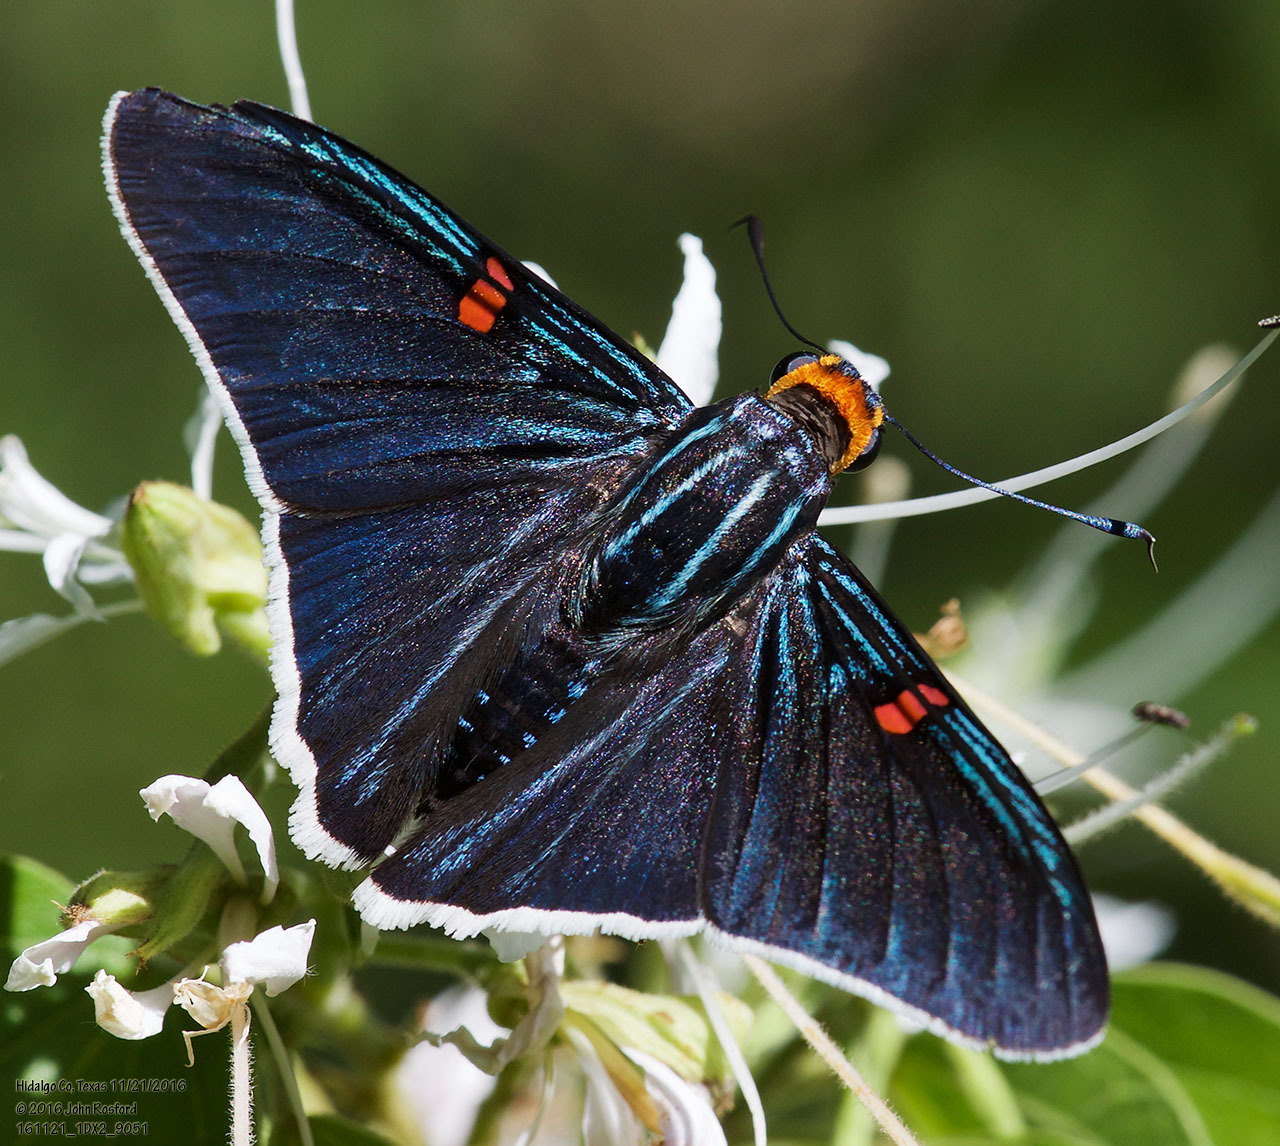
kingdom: Animalia
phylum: Arthropoda
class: Insecta
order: Lepidoptera
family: Hesperiidae
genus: Phocides
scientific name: Phocides lilea
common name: Guava skipper
